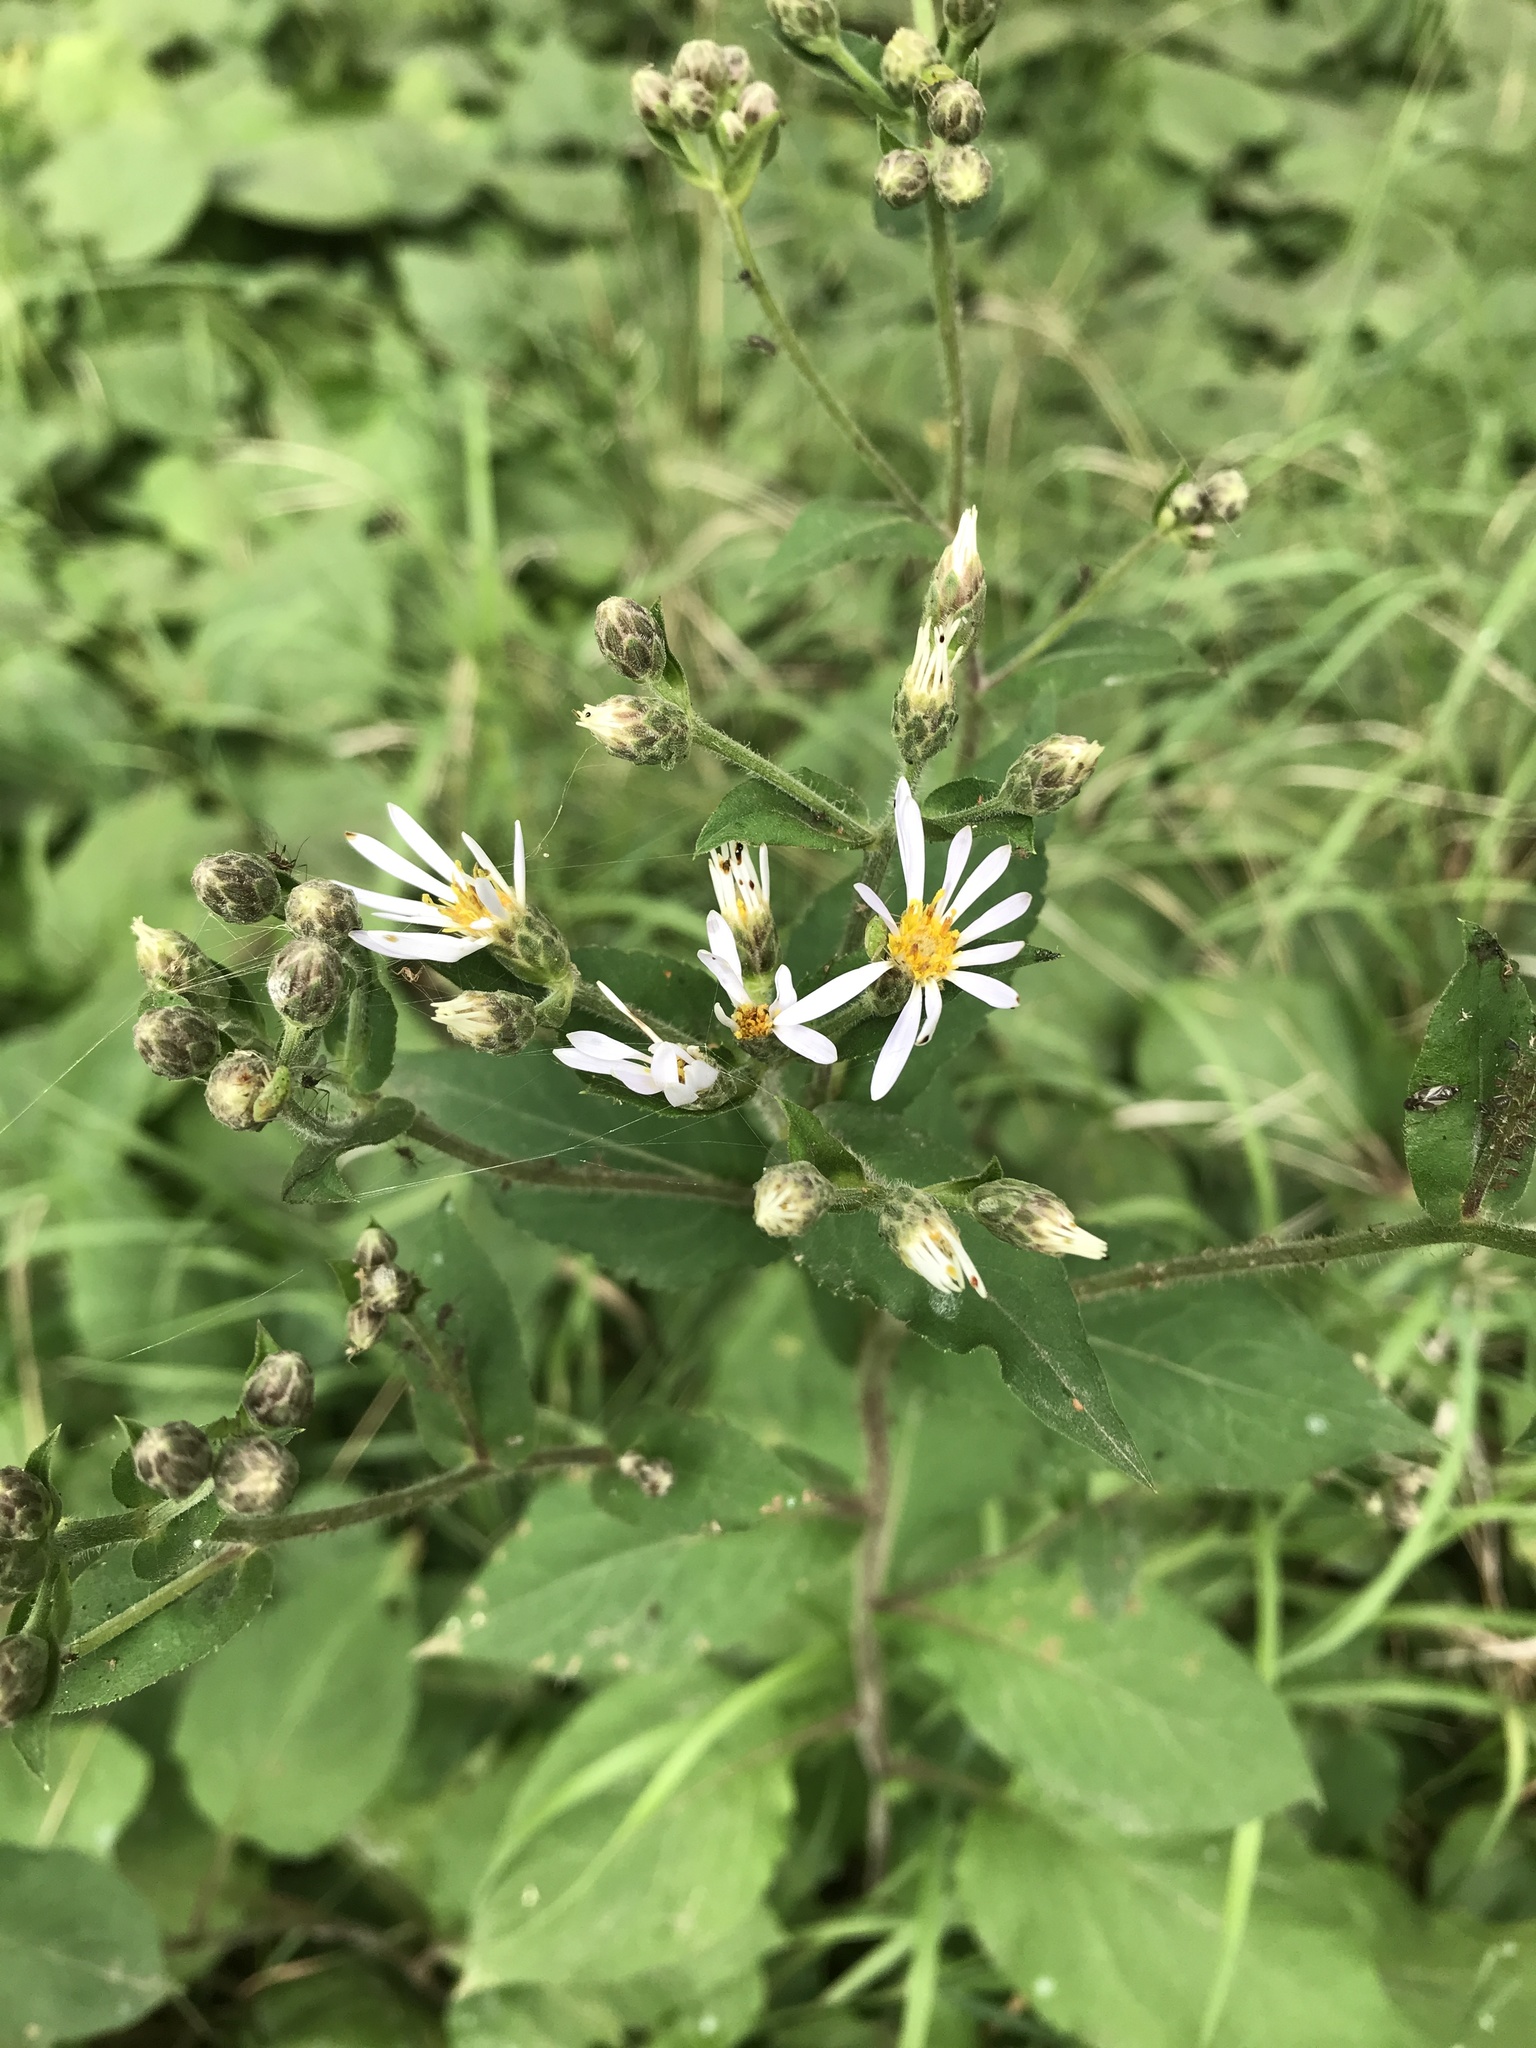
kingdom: Plantae
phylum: Tracheophyta
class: Magnoliopsida
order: Asterales
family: Asteraceae
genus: Eurybia
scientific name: Eurybia macrophylla
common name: Big-leaved aster
